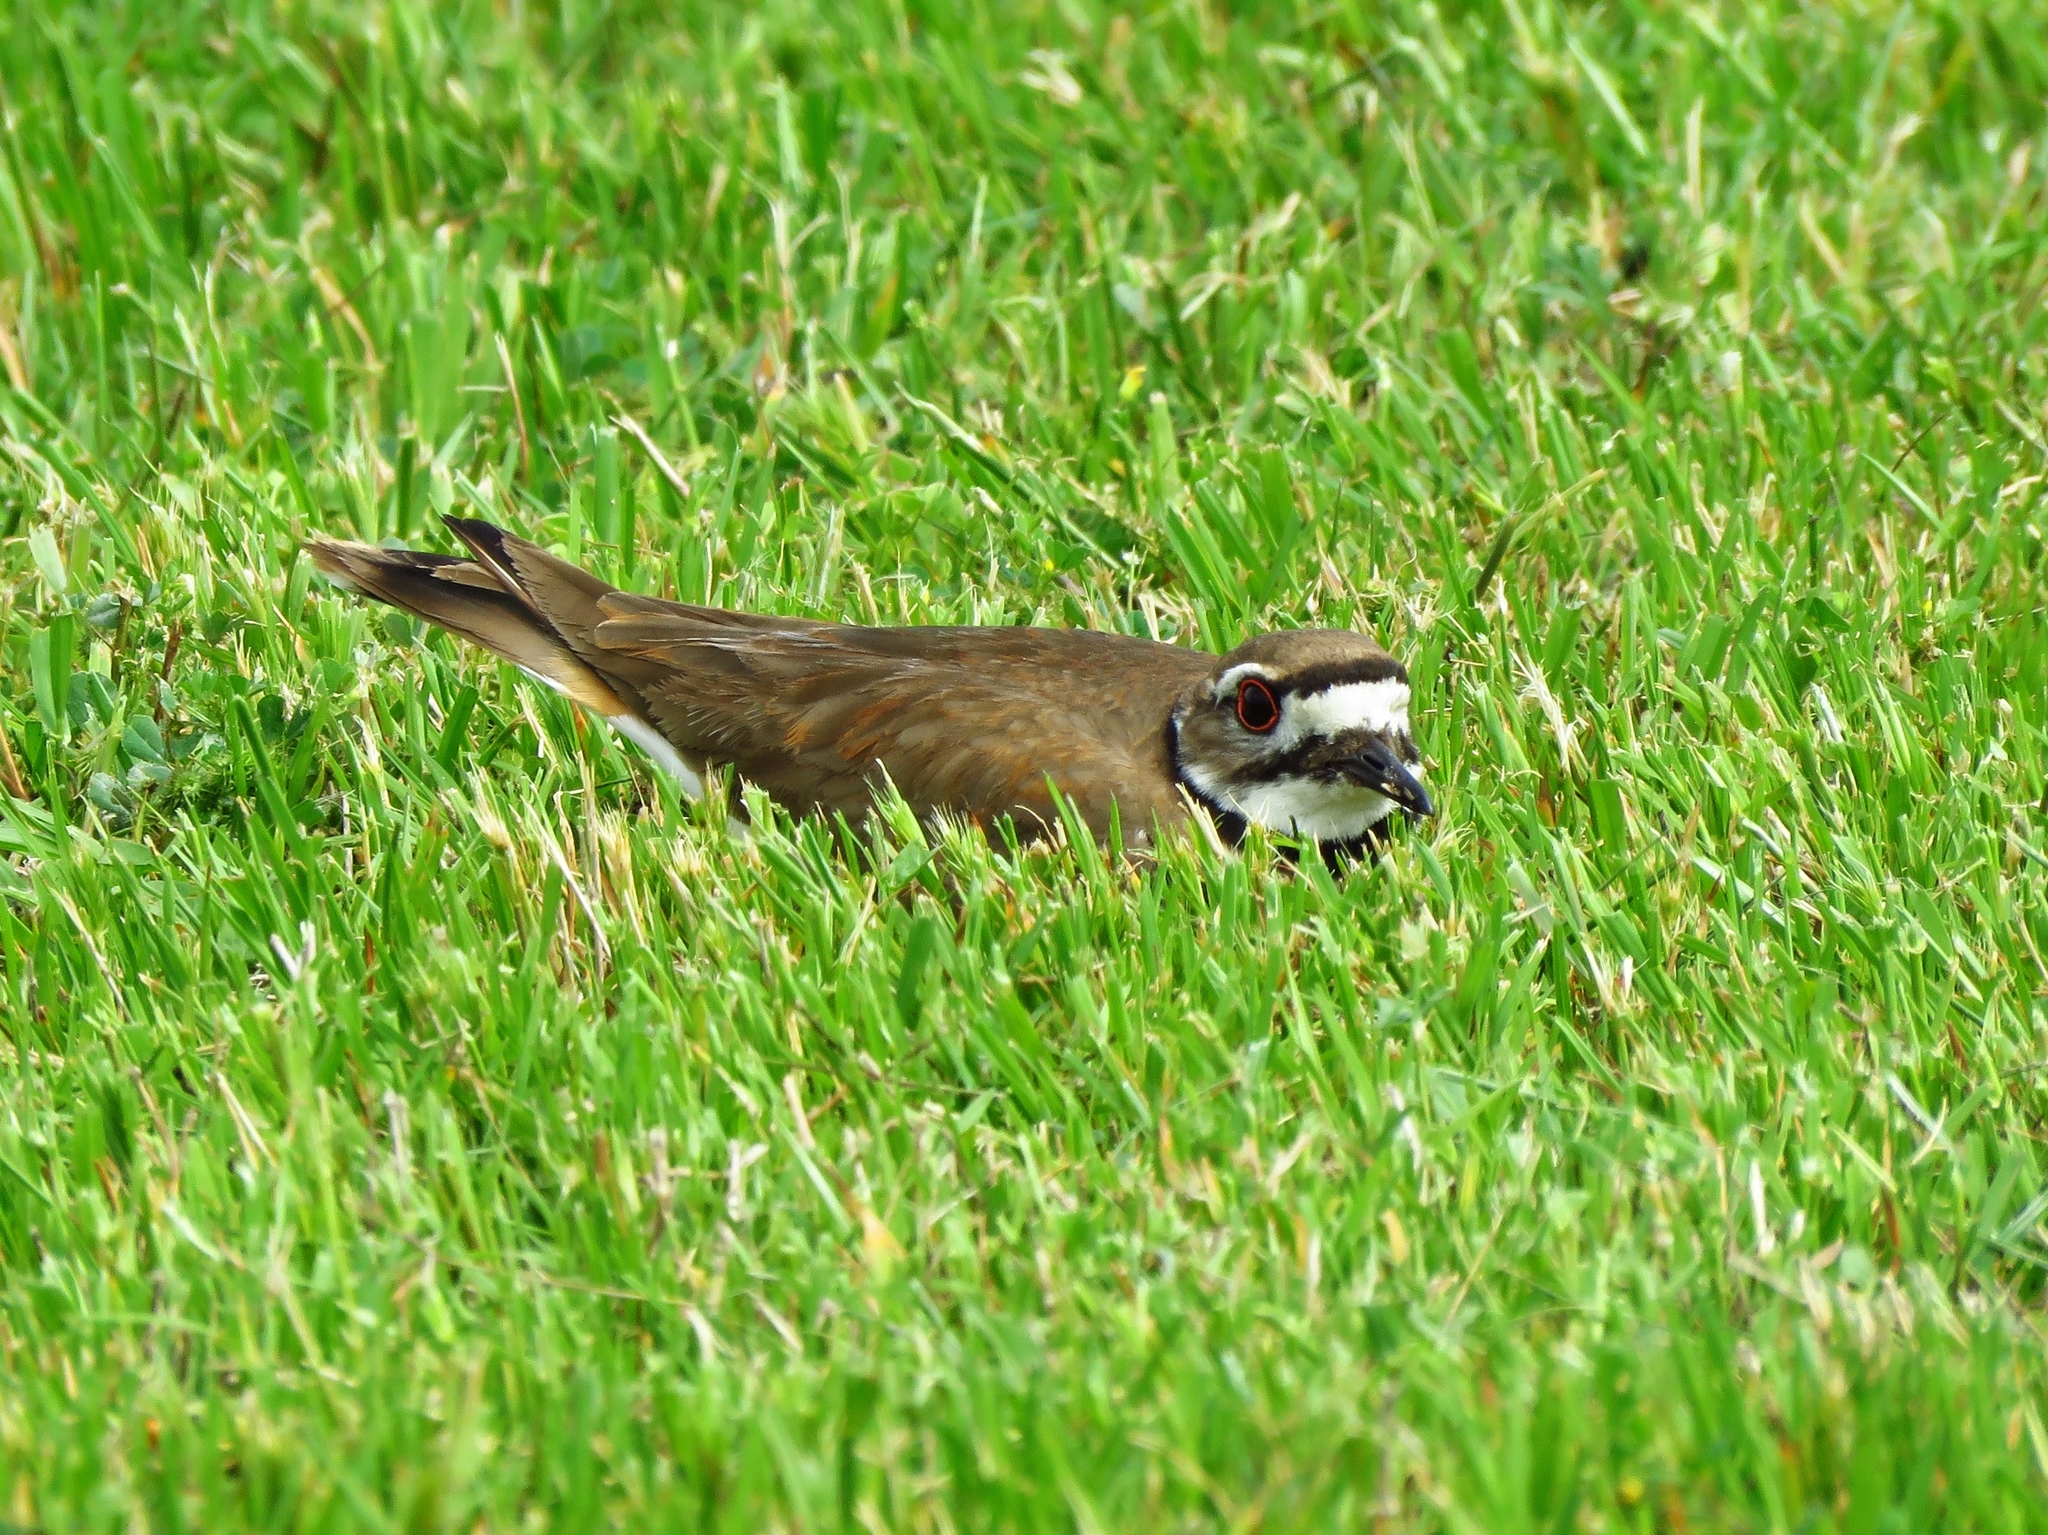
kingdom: Animalia
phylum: Chordata
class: Aves
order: Charadriiformes
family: Charadriidae
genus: Charadrius
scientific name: Charadrius vociferus
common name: Killdeer
